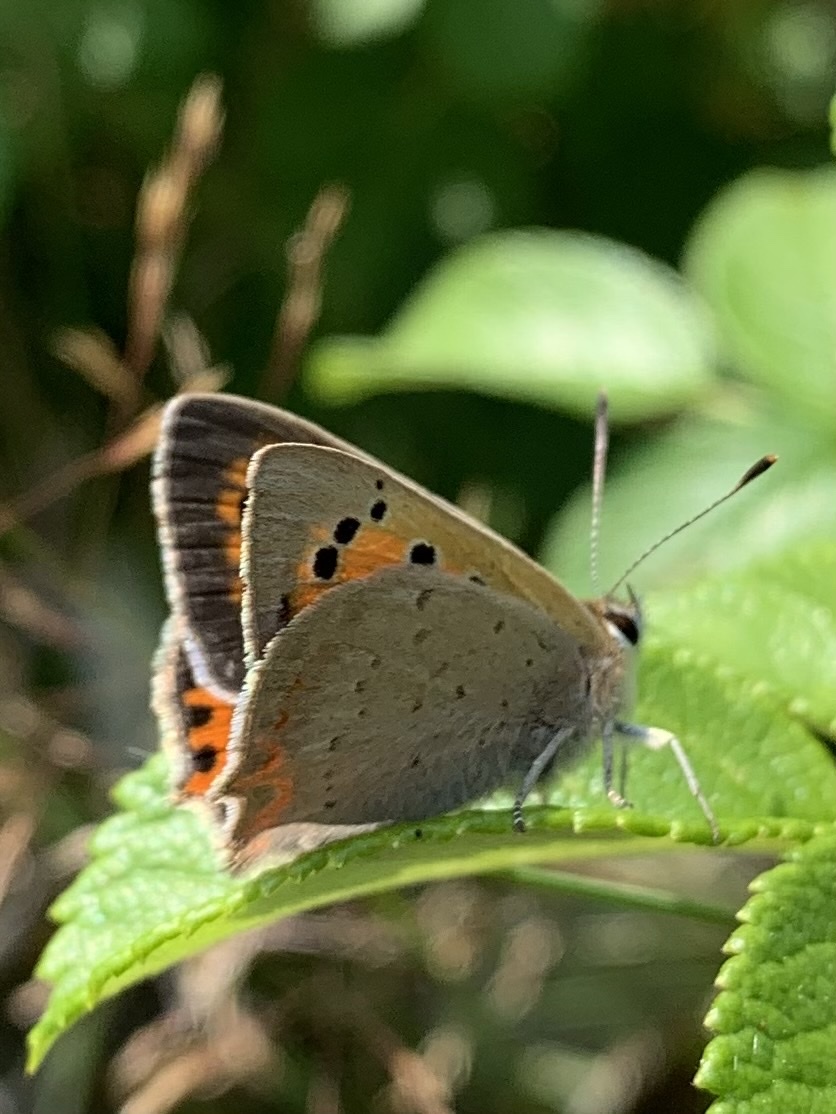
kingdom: Animalia
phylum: Arthropoda
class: Insecta
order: Lepidoptera
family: Lycaenidae
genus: Lycaena
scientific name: Lycaena phlaeas
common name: Small copper
